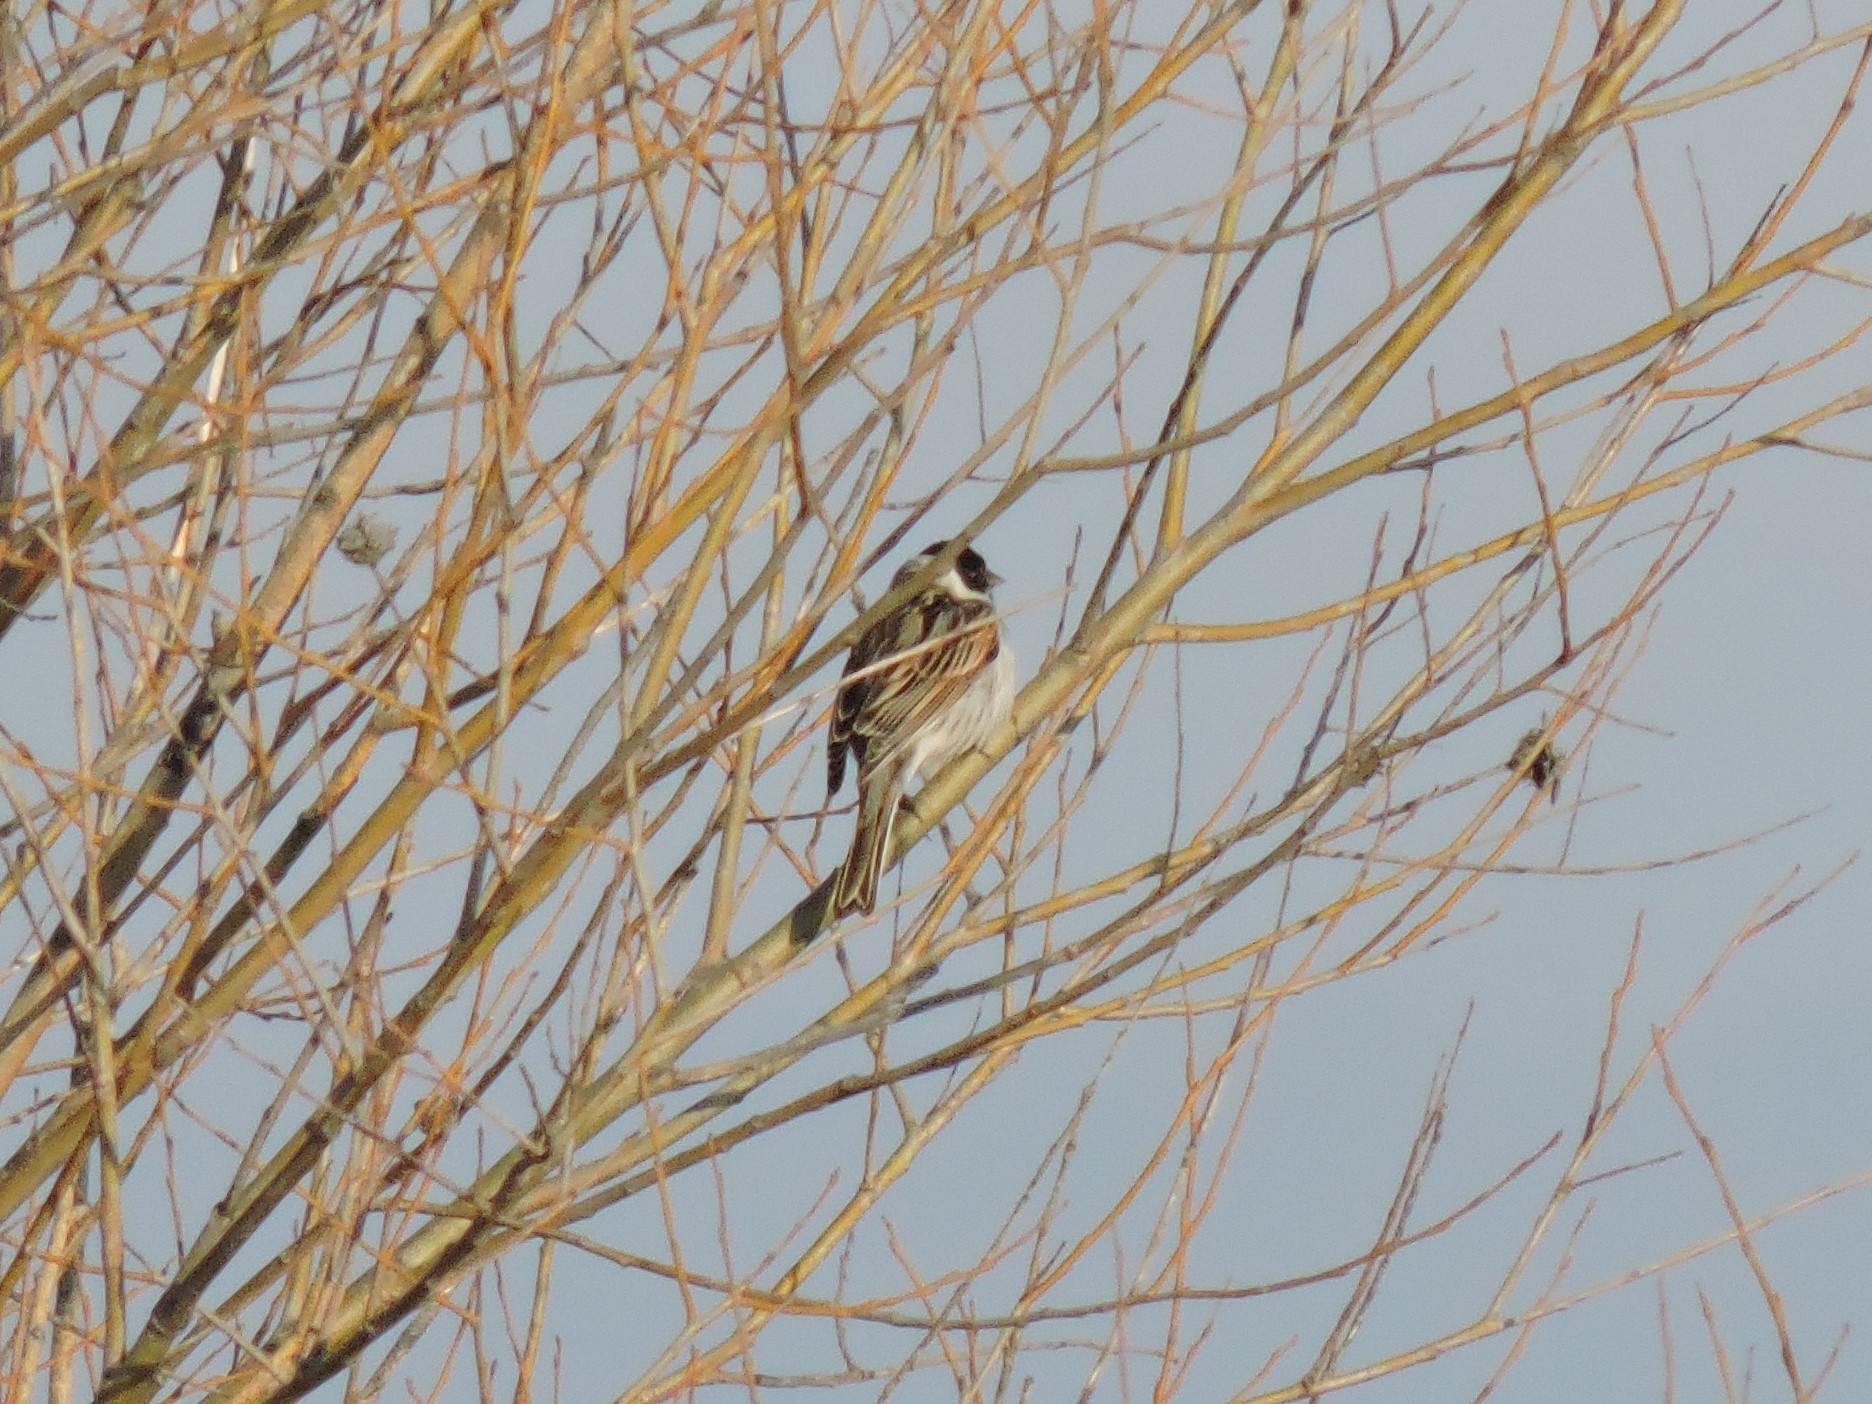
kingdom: Animalia
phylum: Chordata
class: Aves
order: Passeriformes
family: Emberizidae
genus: Emberiza
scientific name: Emberiza schoeniclus
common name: Reed bunting
